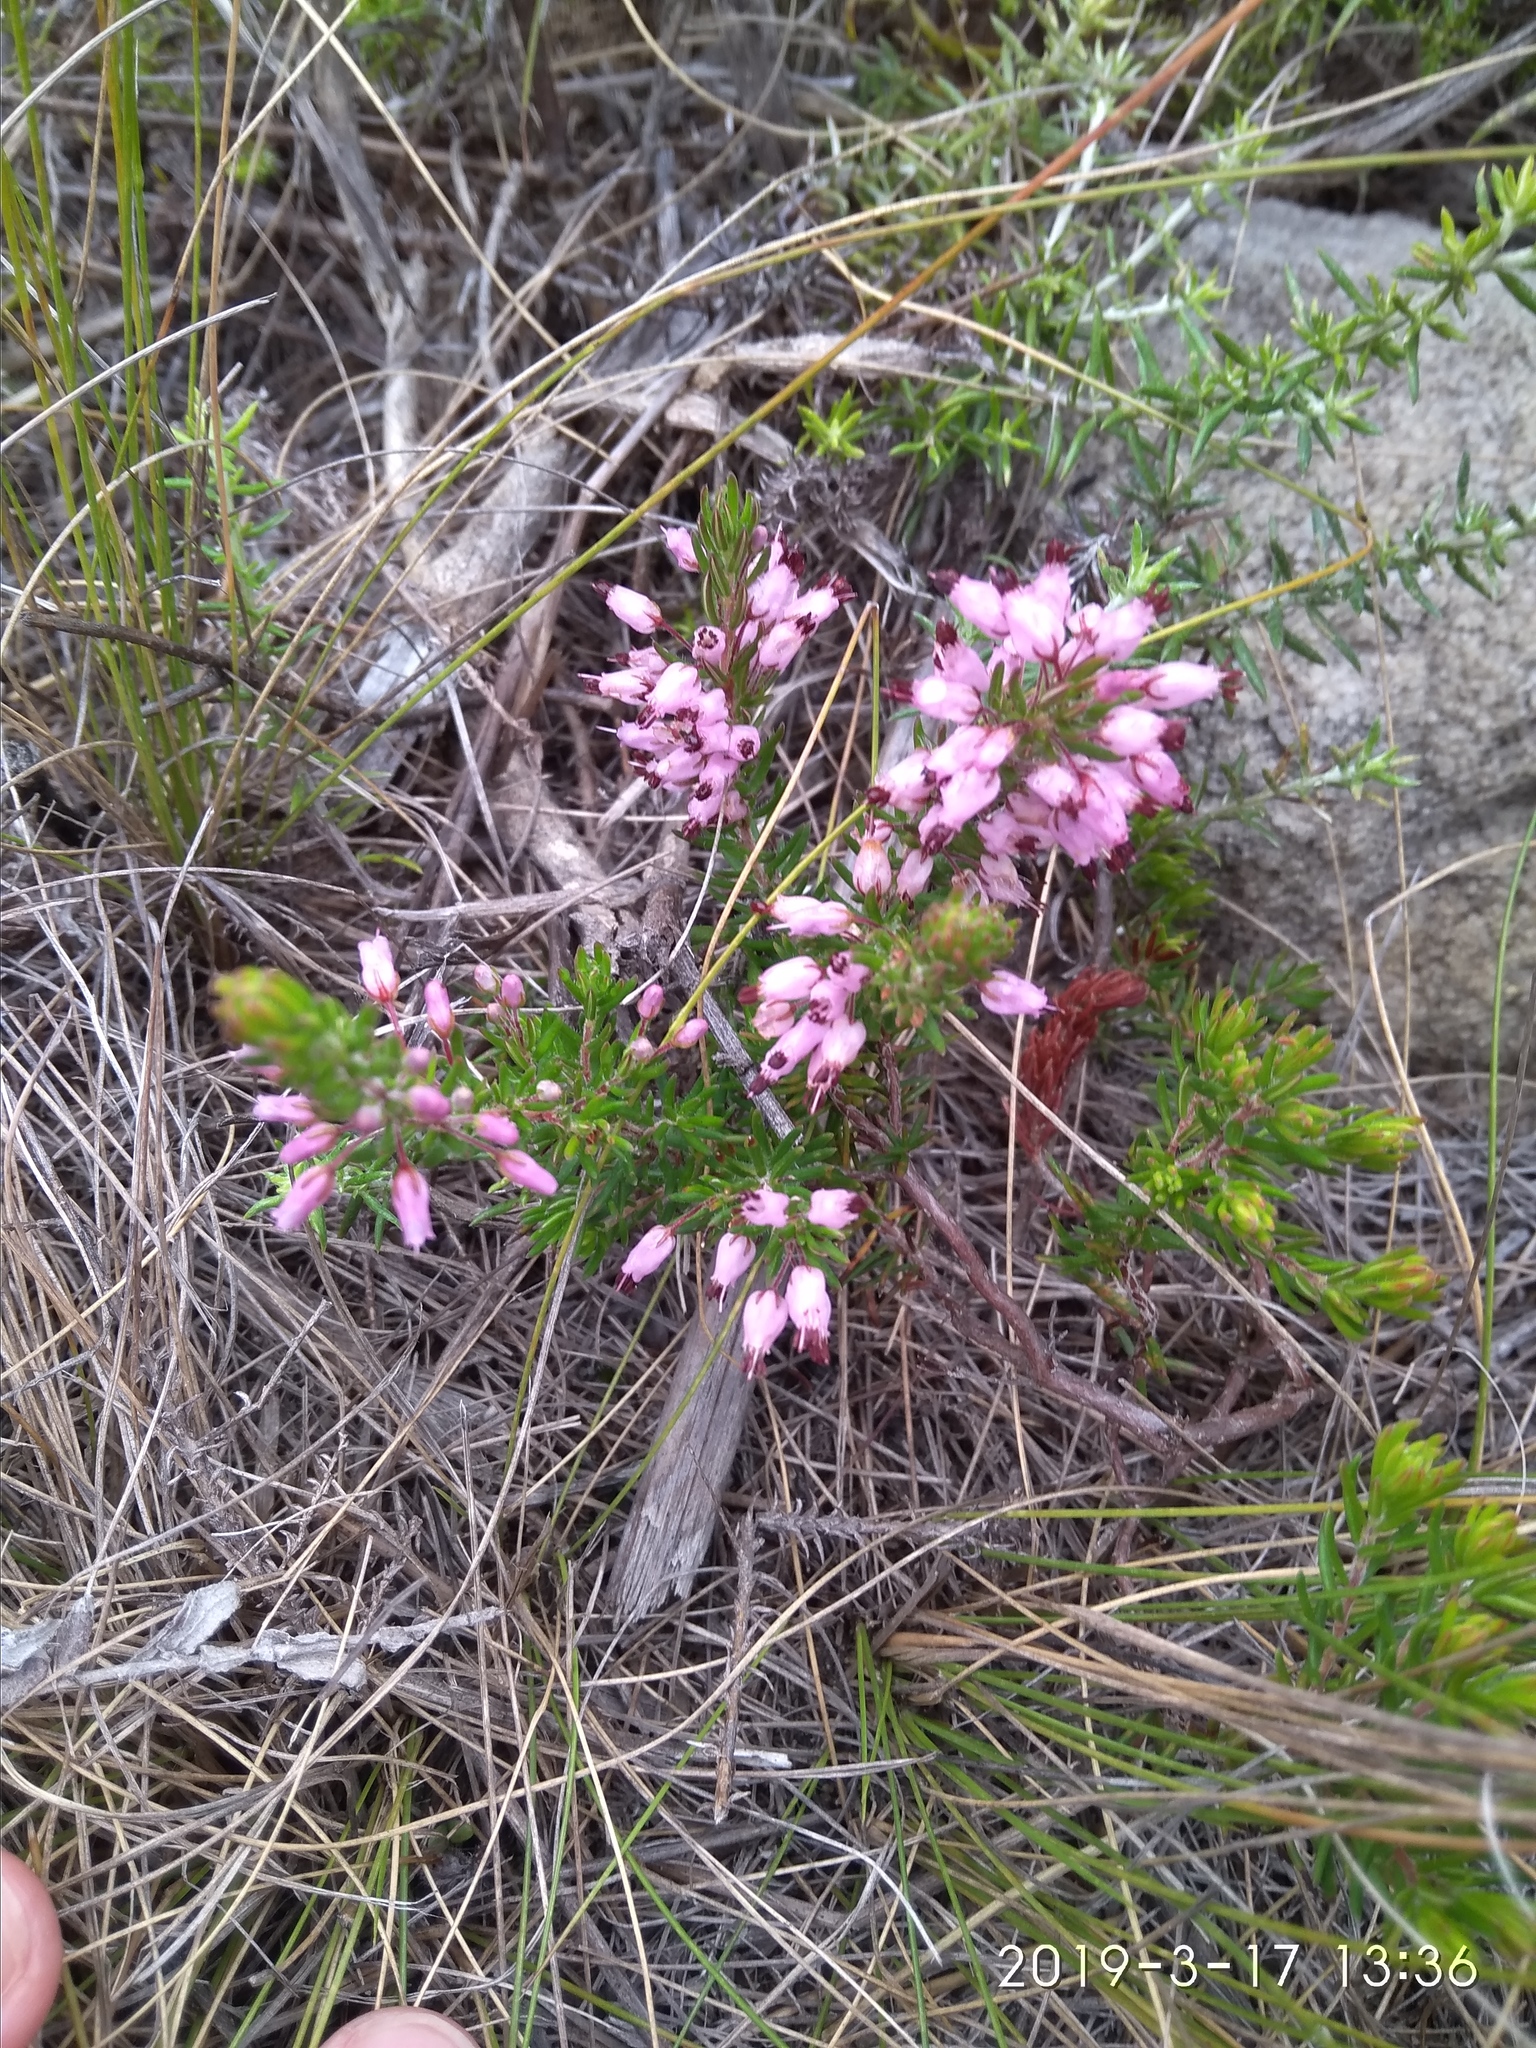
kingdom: Plantae
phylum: Tracheophyta
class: Magnoliopsida
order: Ericales
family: Ericaceae
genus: Erica
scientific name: Erica nudiflora
